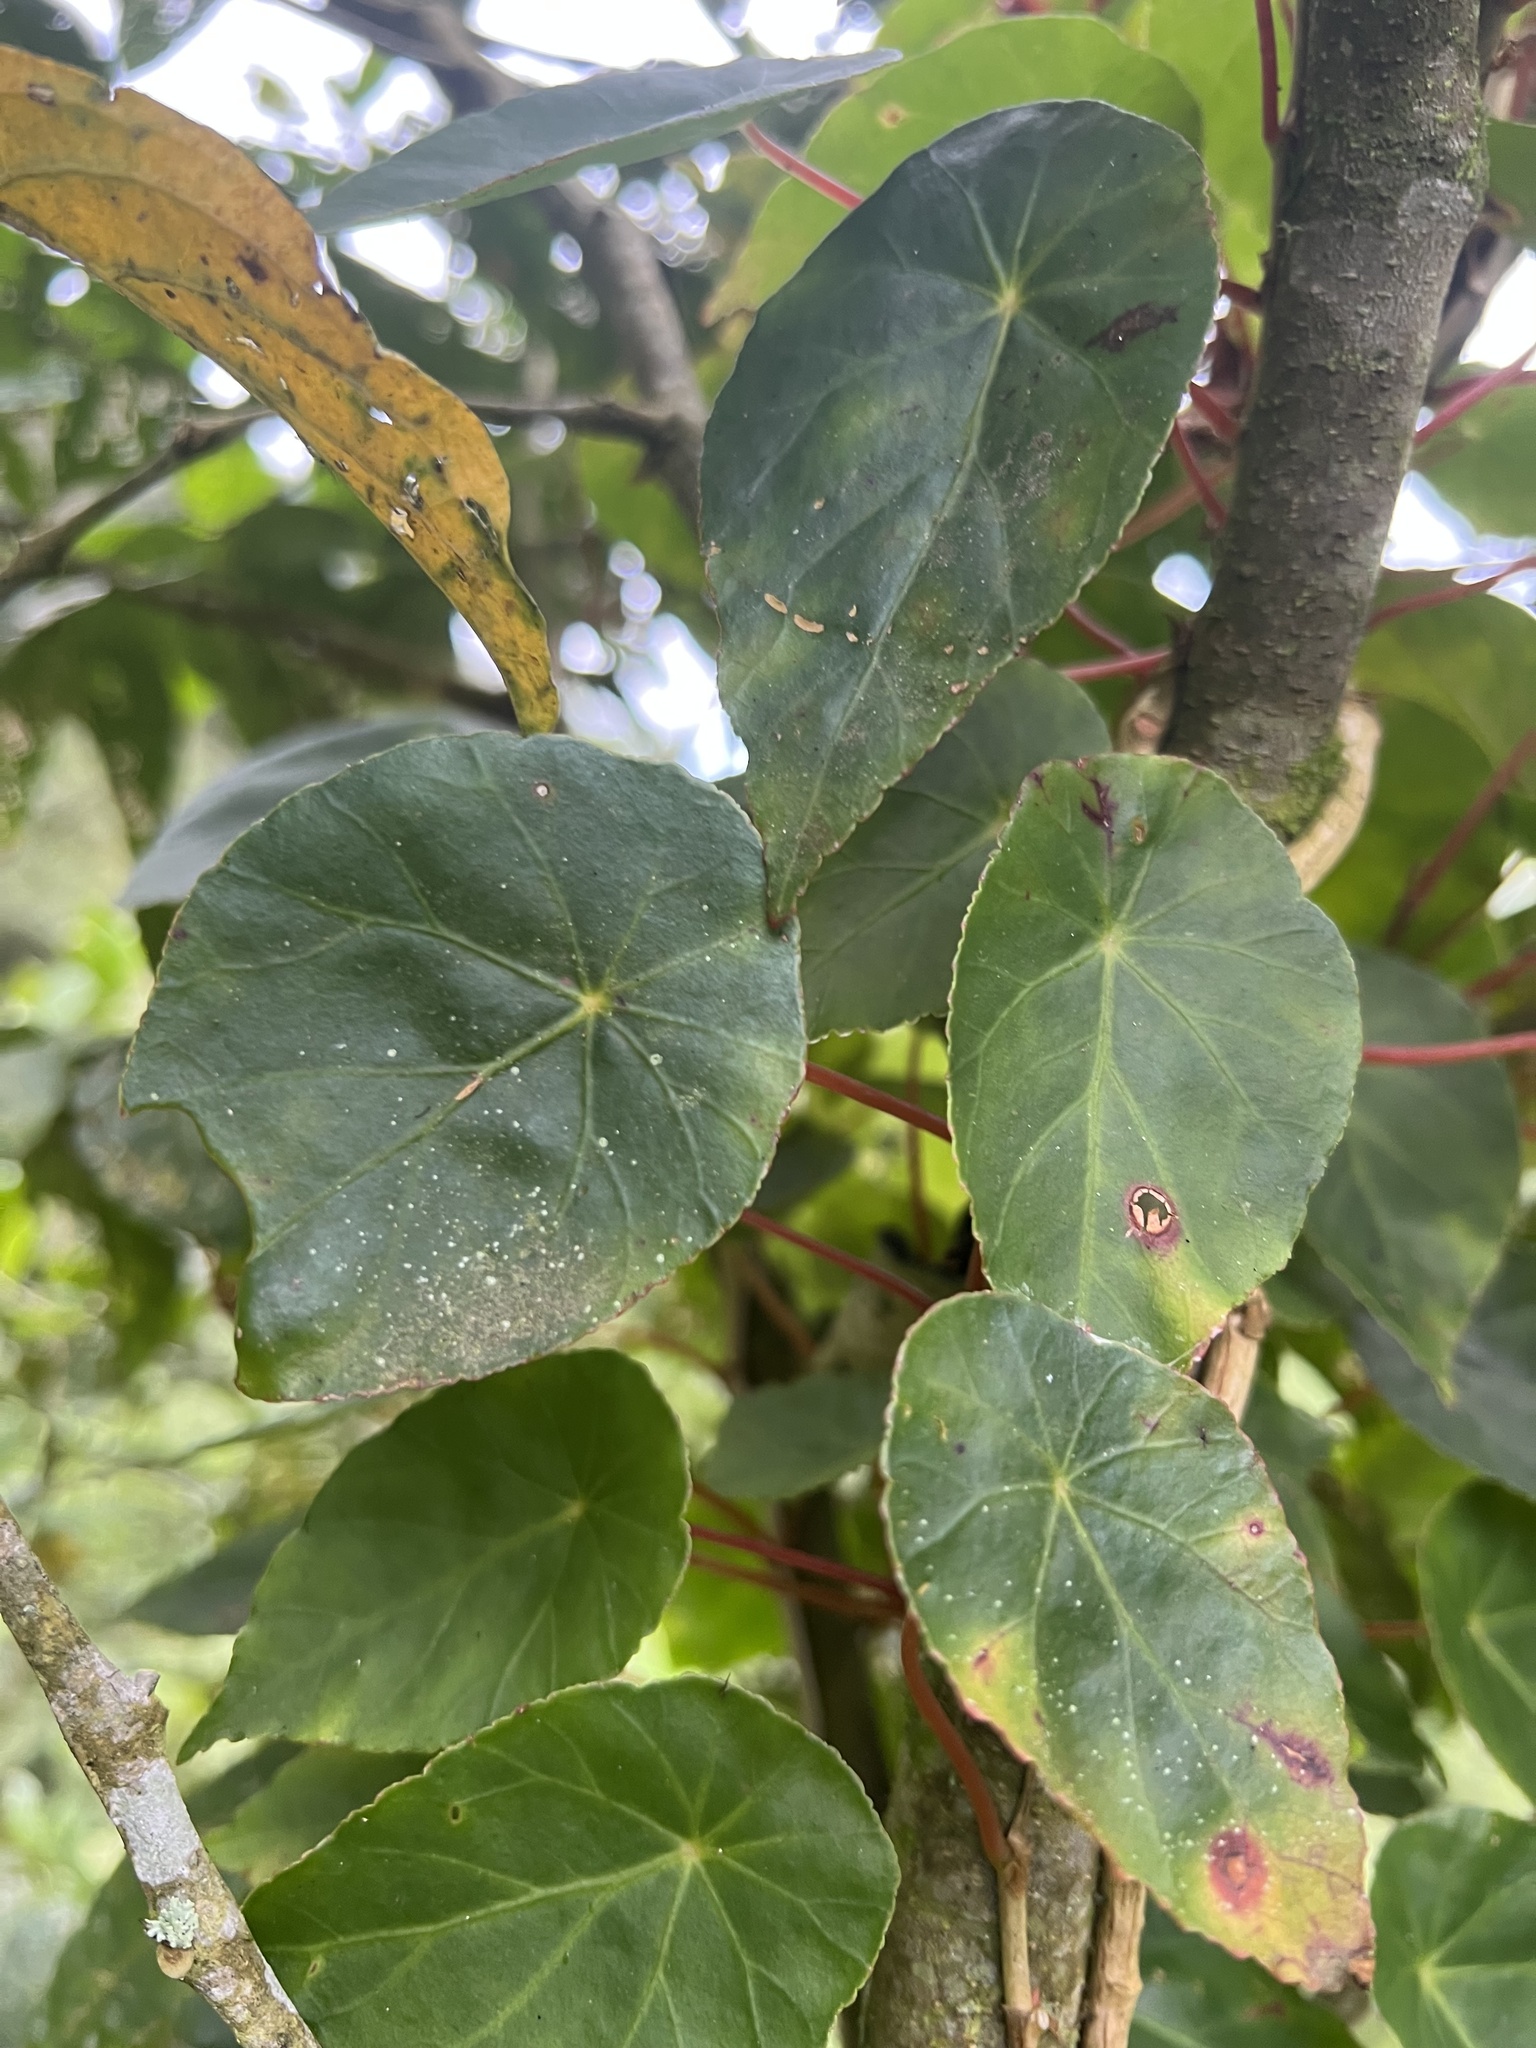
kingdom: Plantae
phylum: Tracheophyta
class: Magnoliopsida
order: Cucurbitales
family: Begoniaceae
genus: Begonia
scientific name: Begonia tropaeolifolia
